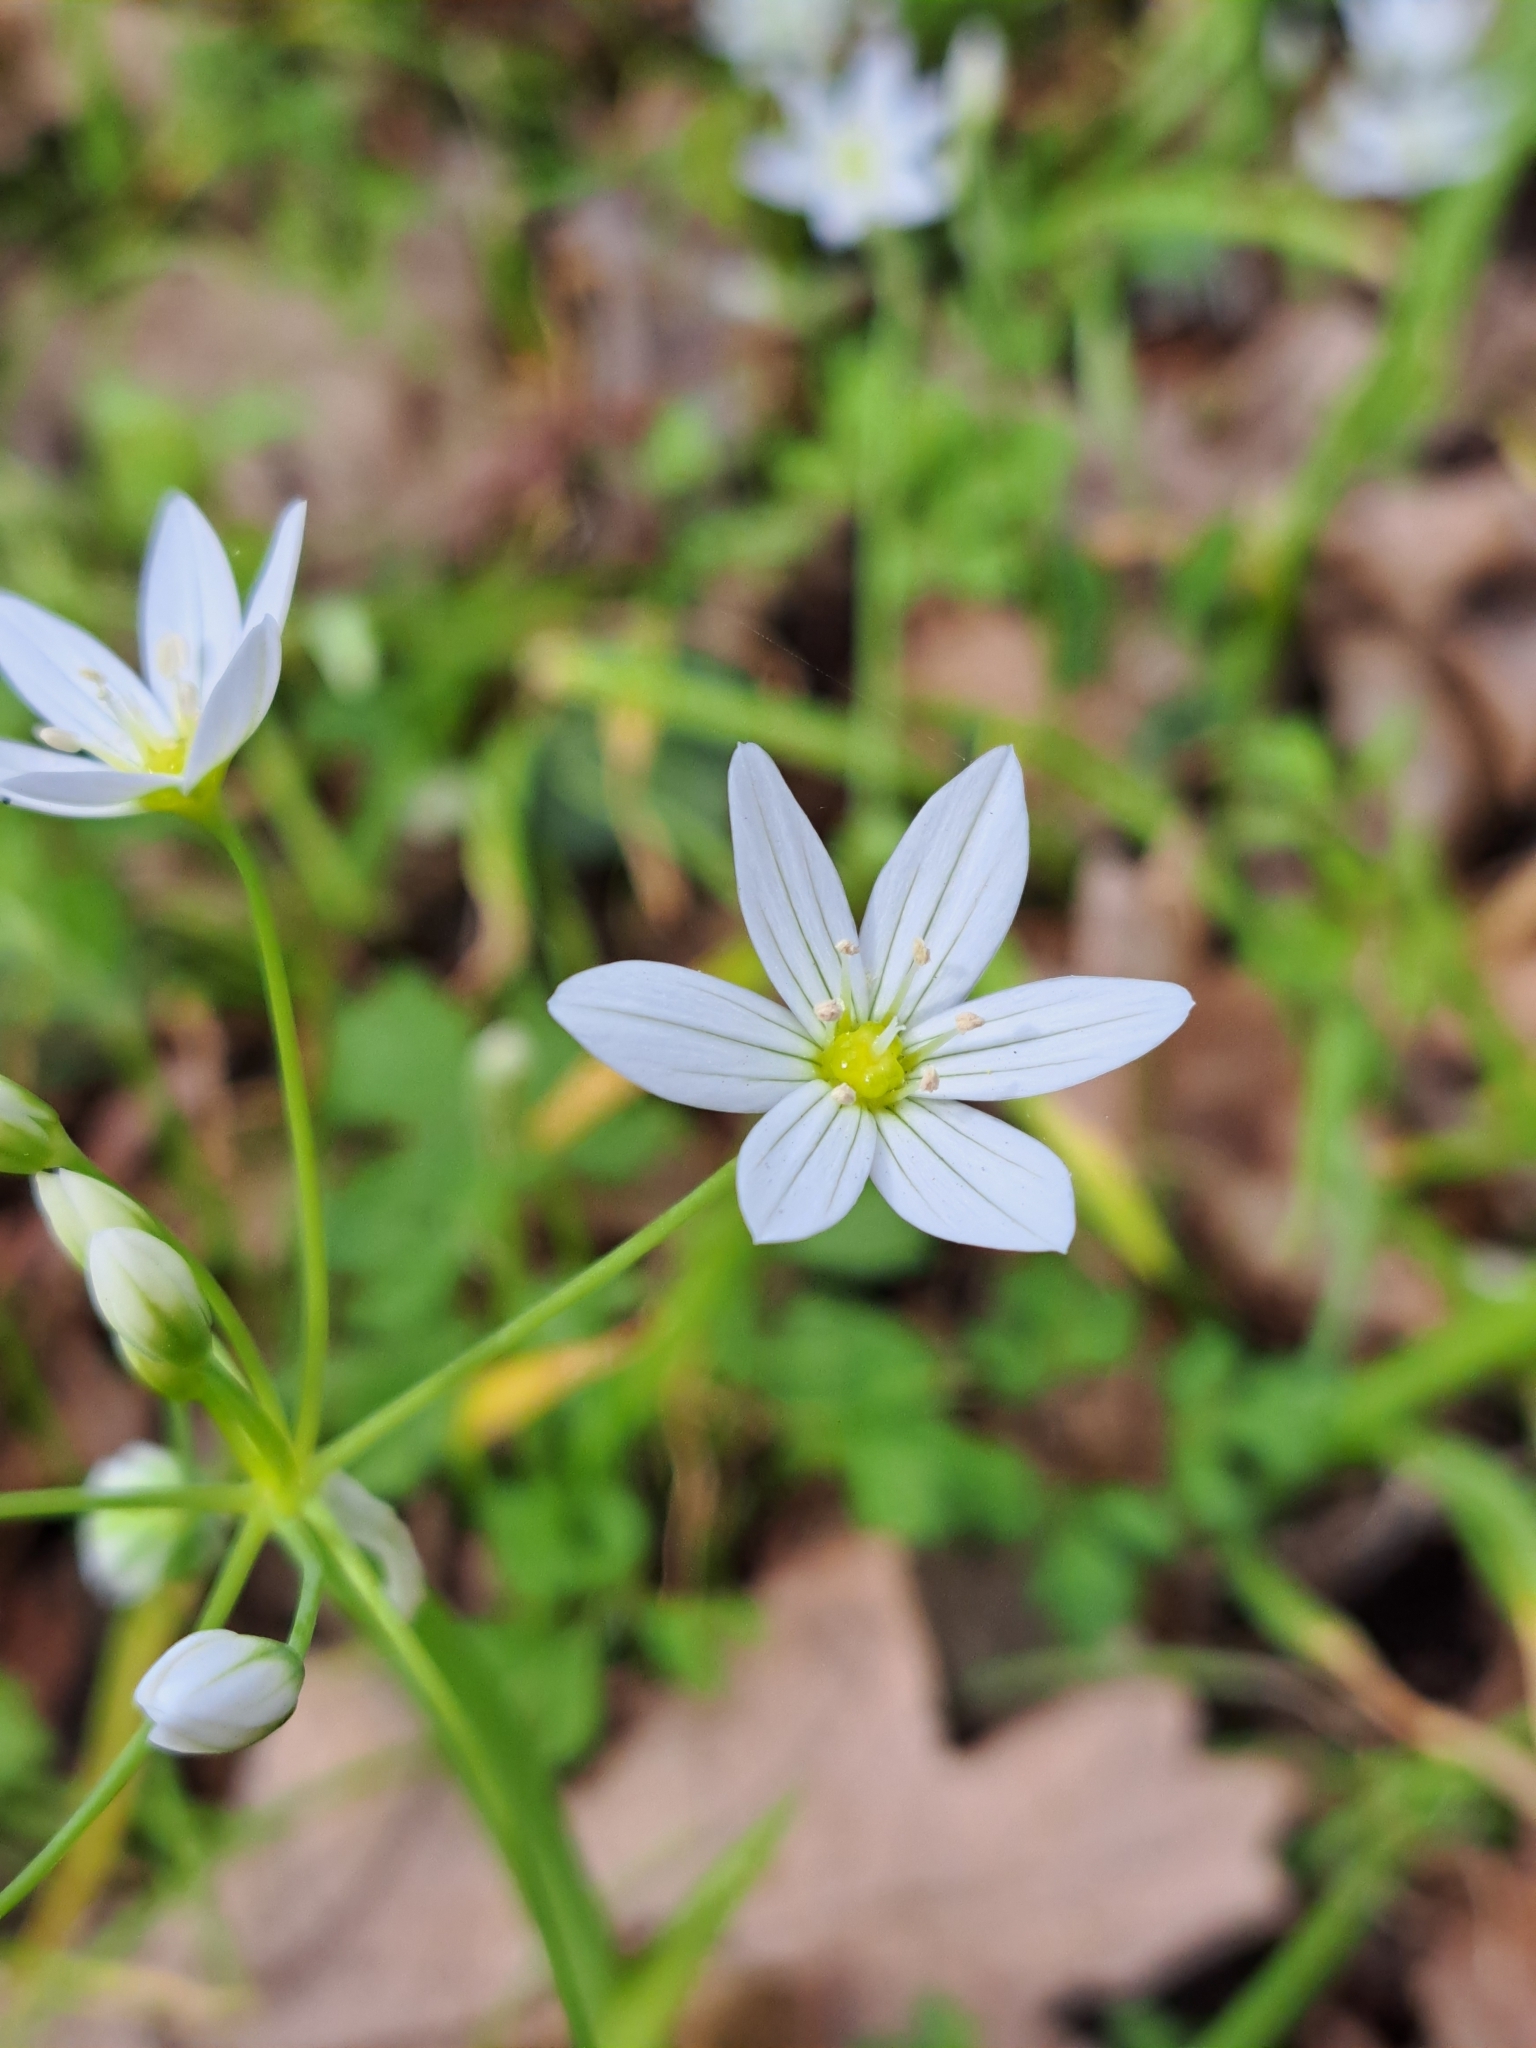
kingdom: Plantae
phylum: Tracheophyta
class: Liliopsida
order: Asparagales
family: Amaryllidaceae
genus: Allium
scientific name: Allium pendulinum
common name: Italian garlic
